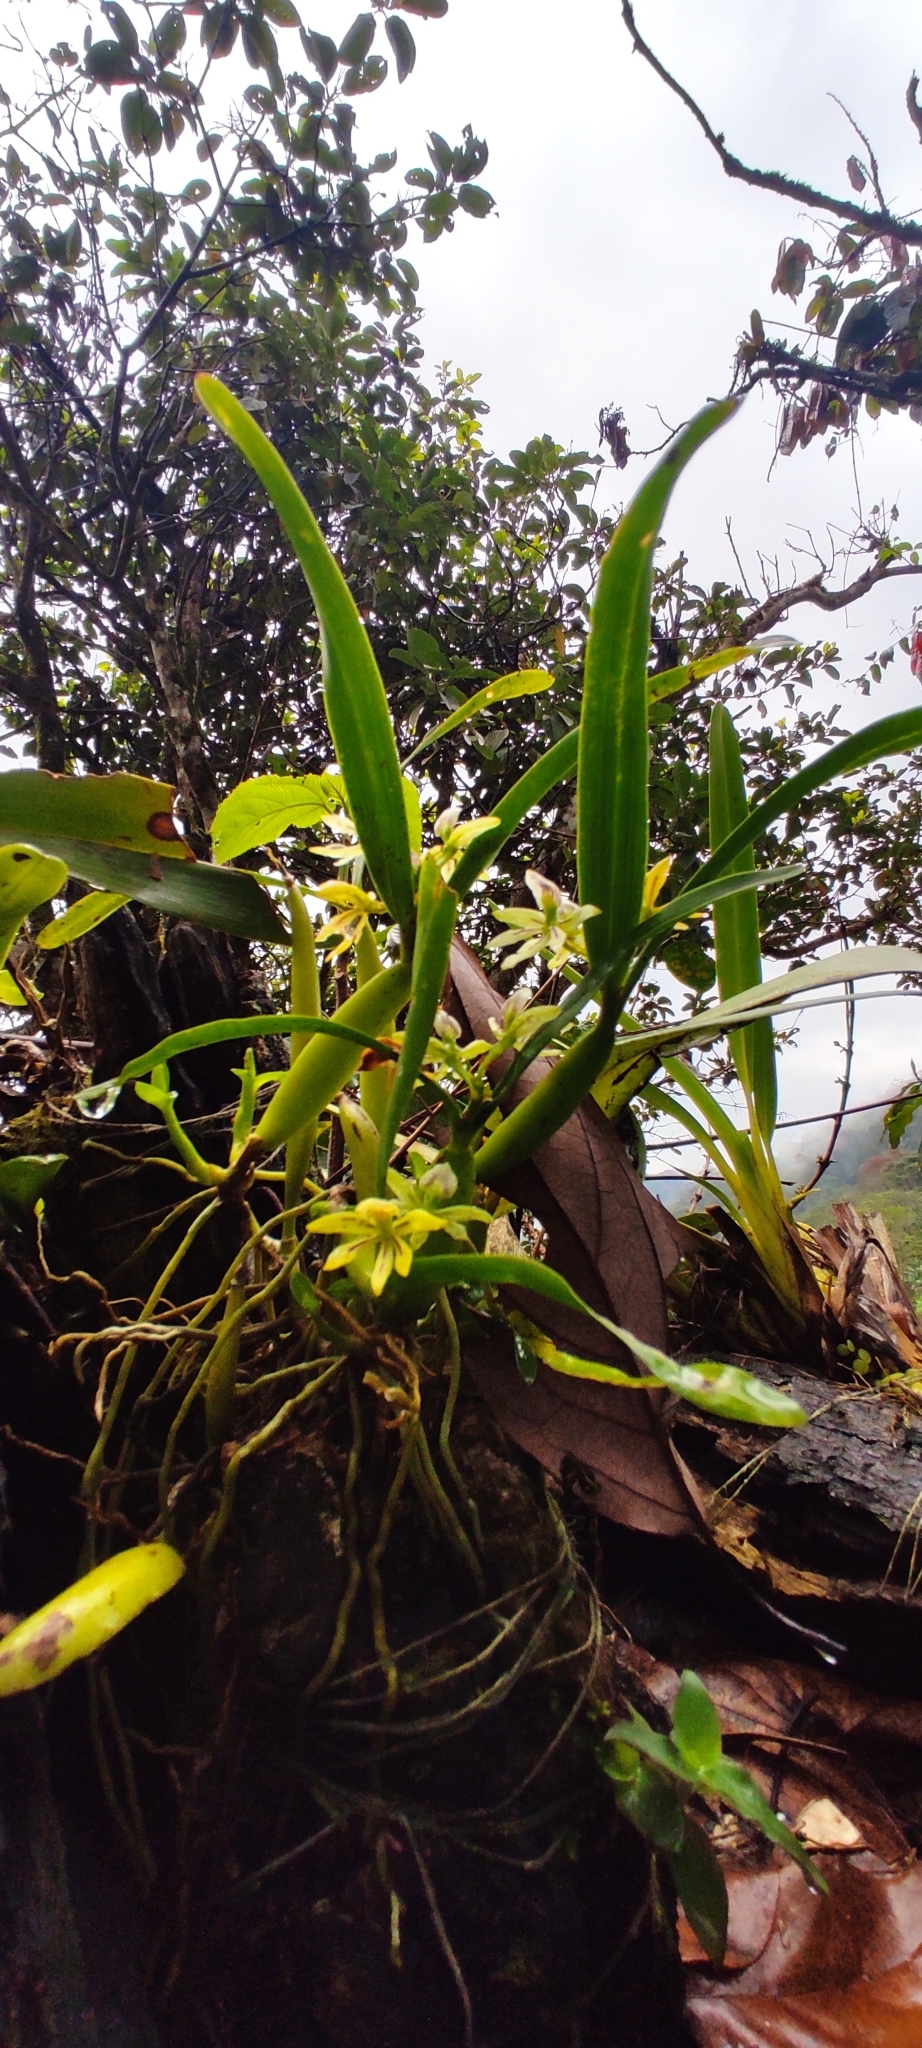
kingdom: Plantae
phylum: Tracheophyta
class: Liliopsida
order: Asparagales
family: Orchidaceae
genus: Prosthechea
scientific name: Prosthechea abbreviata
